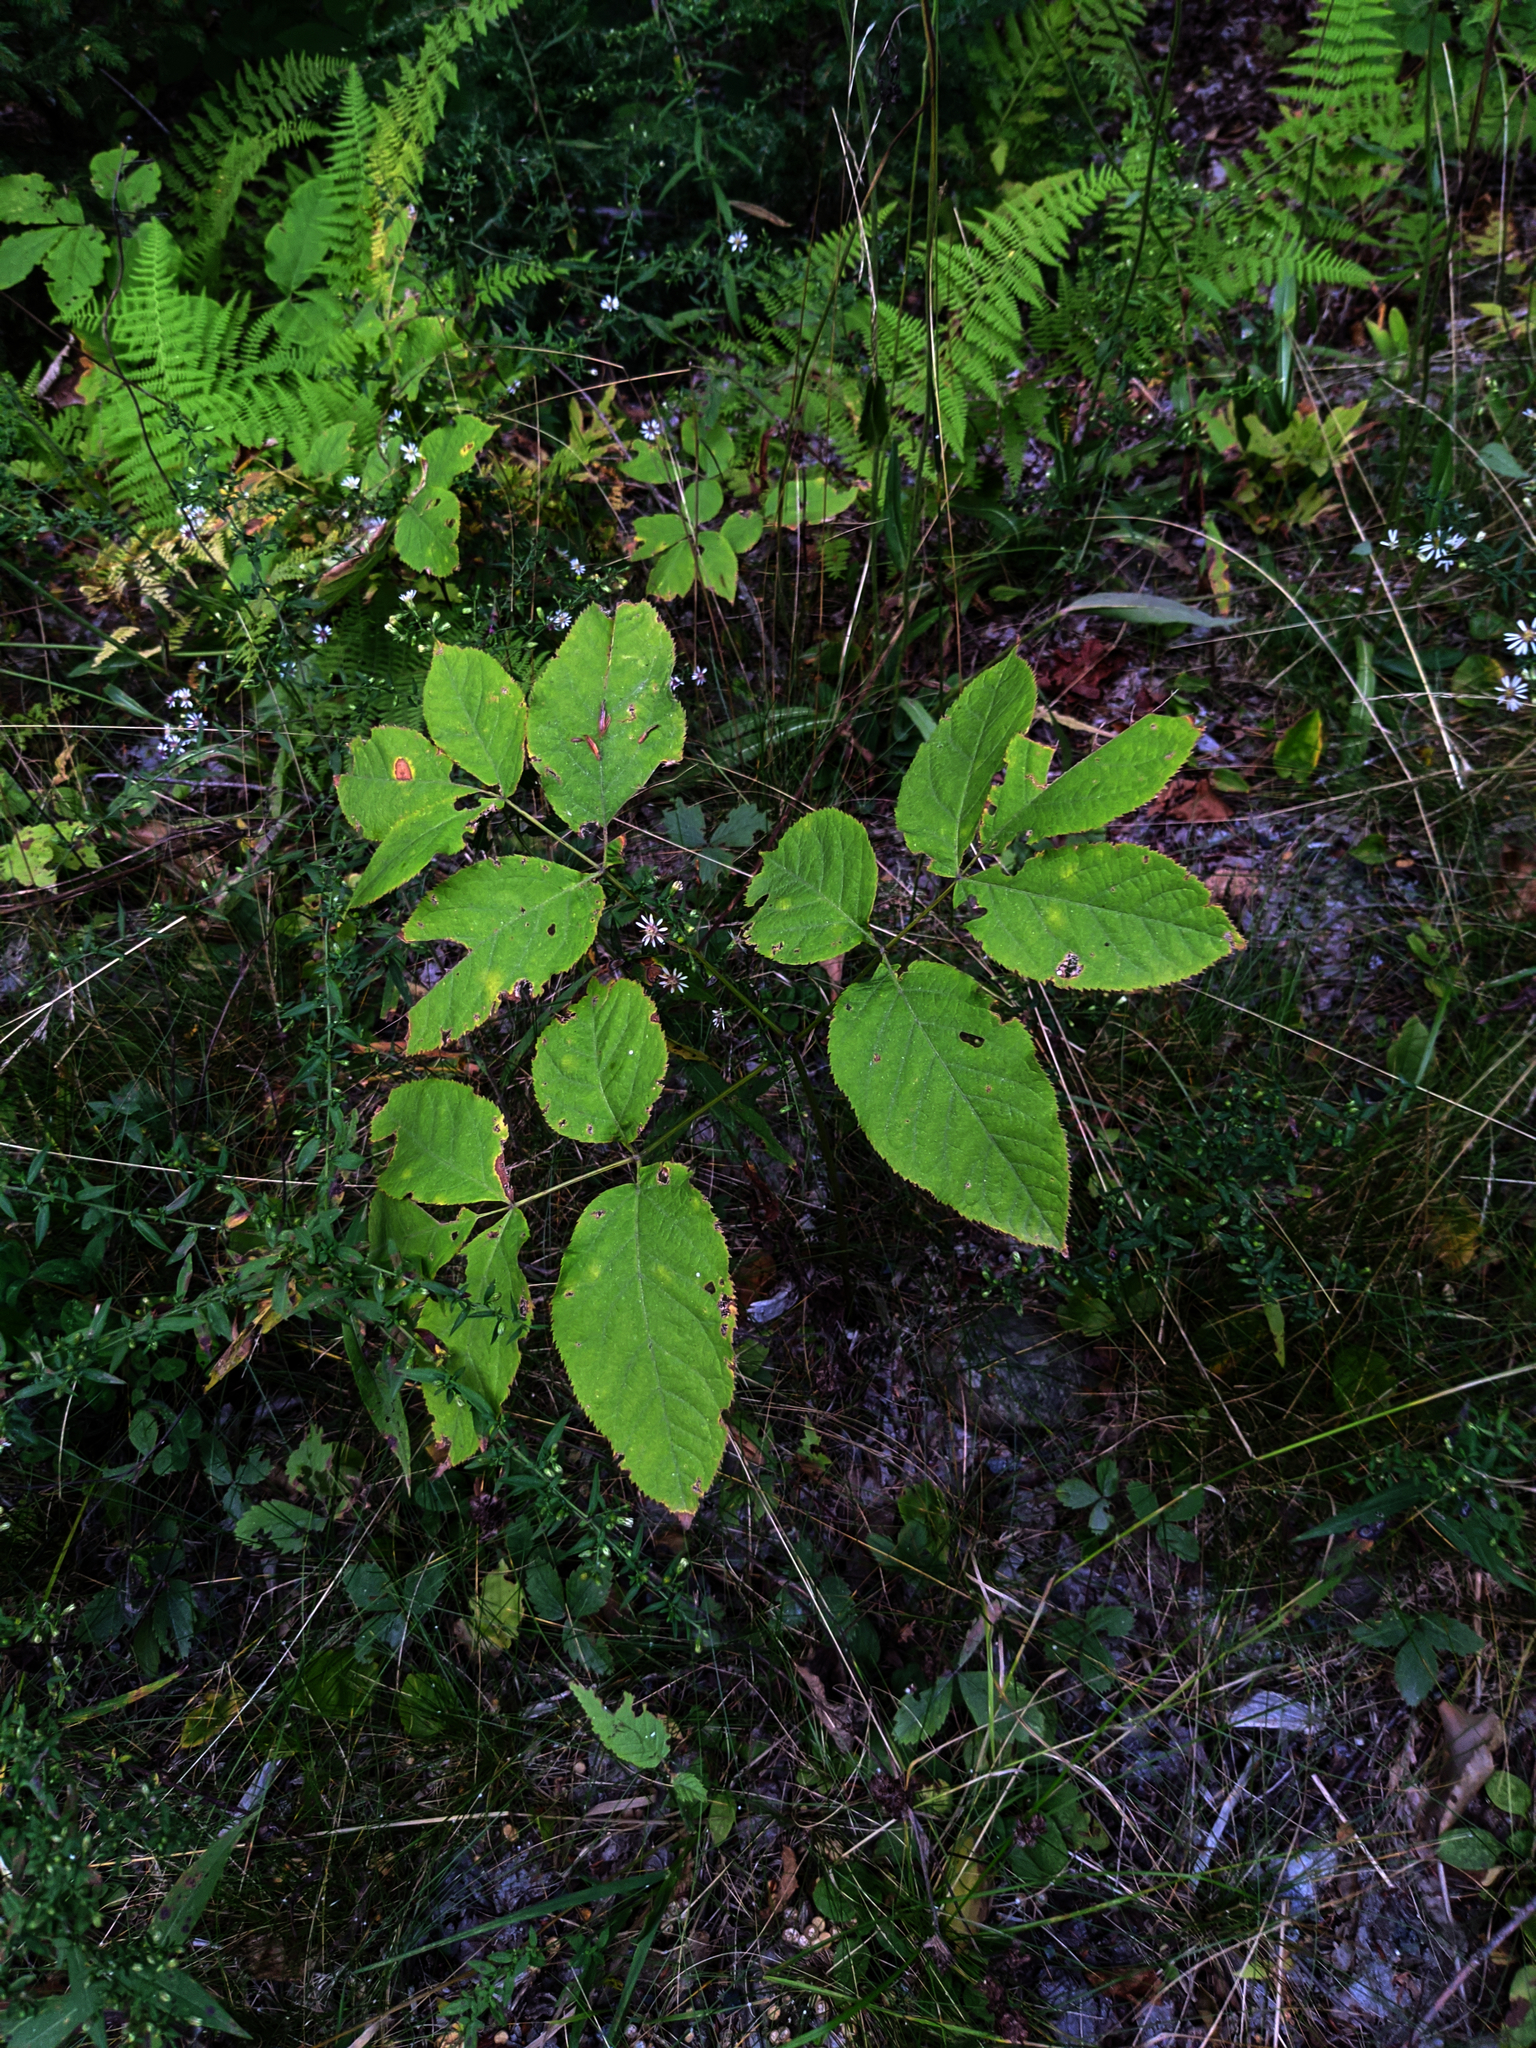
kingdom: Plantae
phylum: Tracheophyta
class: Magnoliopsida
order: Apiales
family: Araliaceae
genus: Aralia
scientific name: Aralia nudicaulis
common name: Wild sarsaparilla
